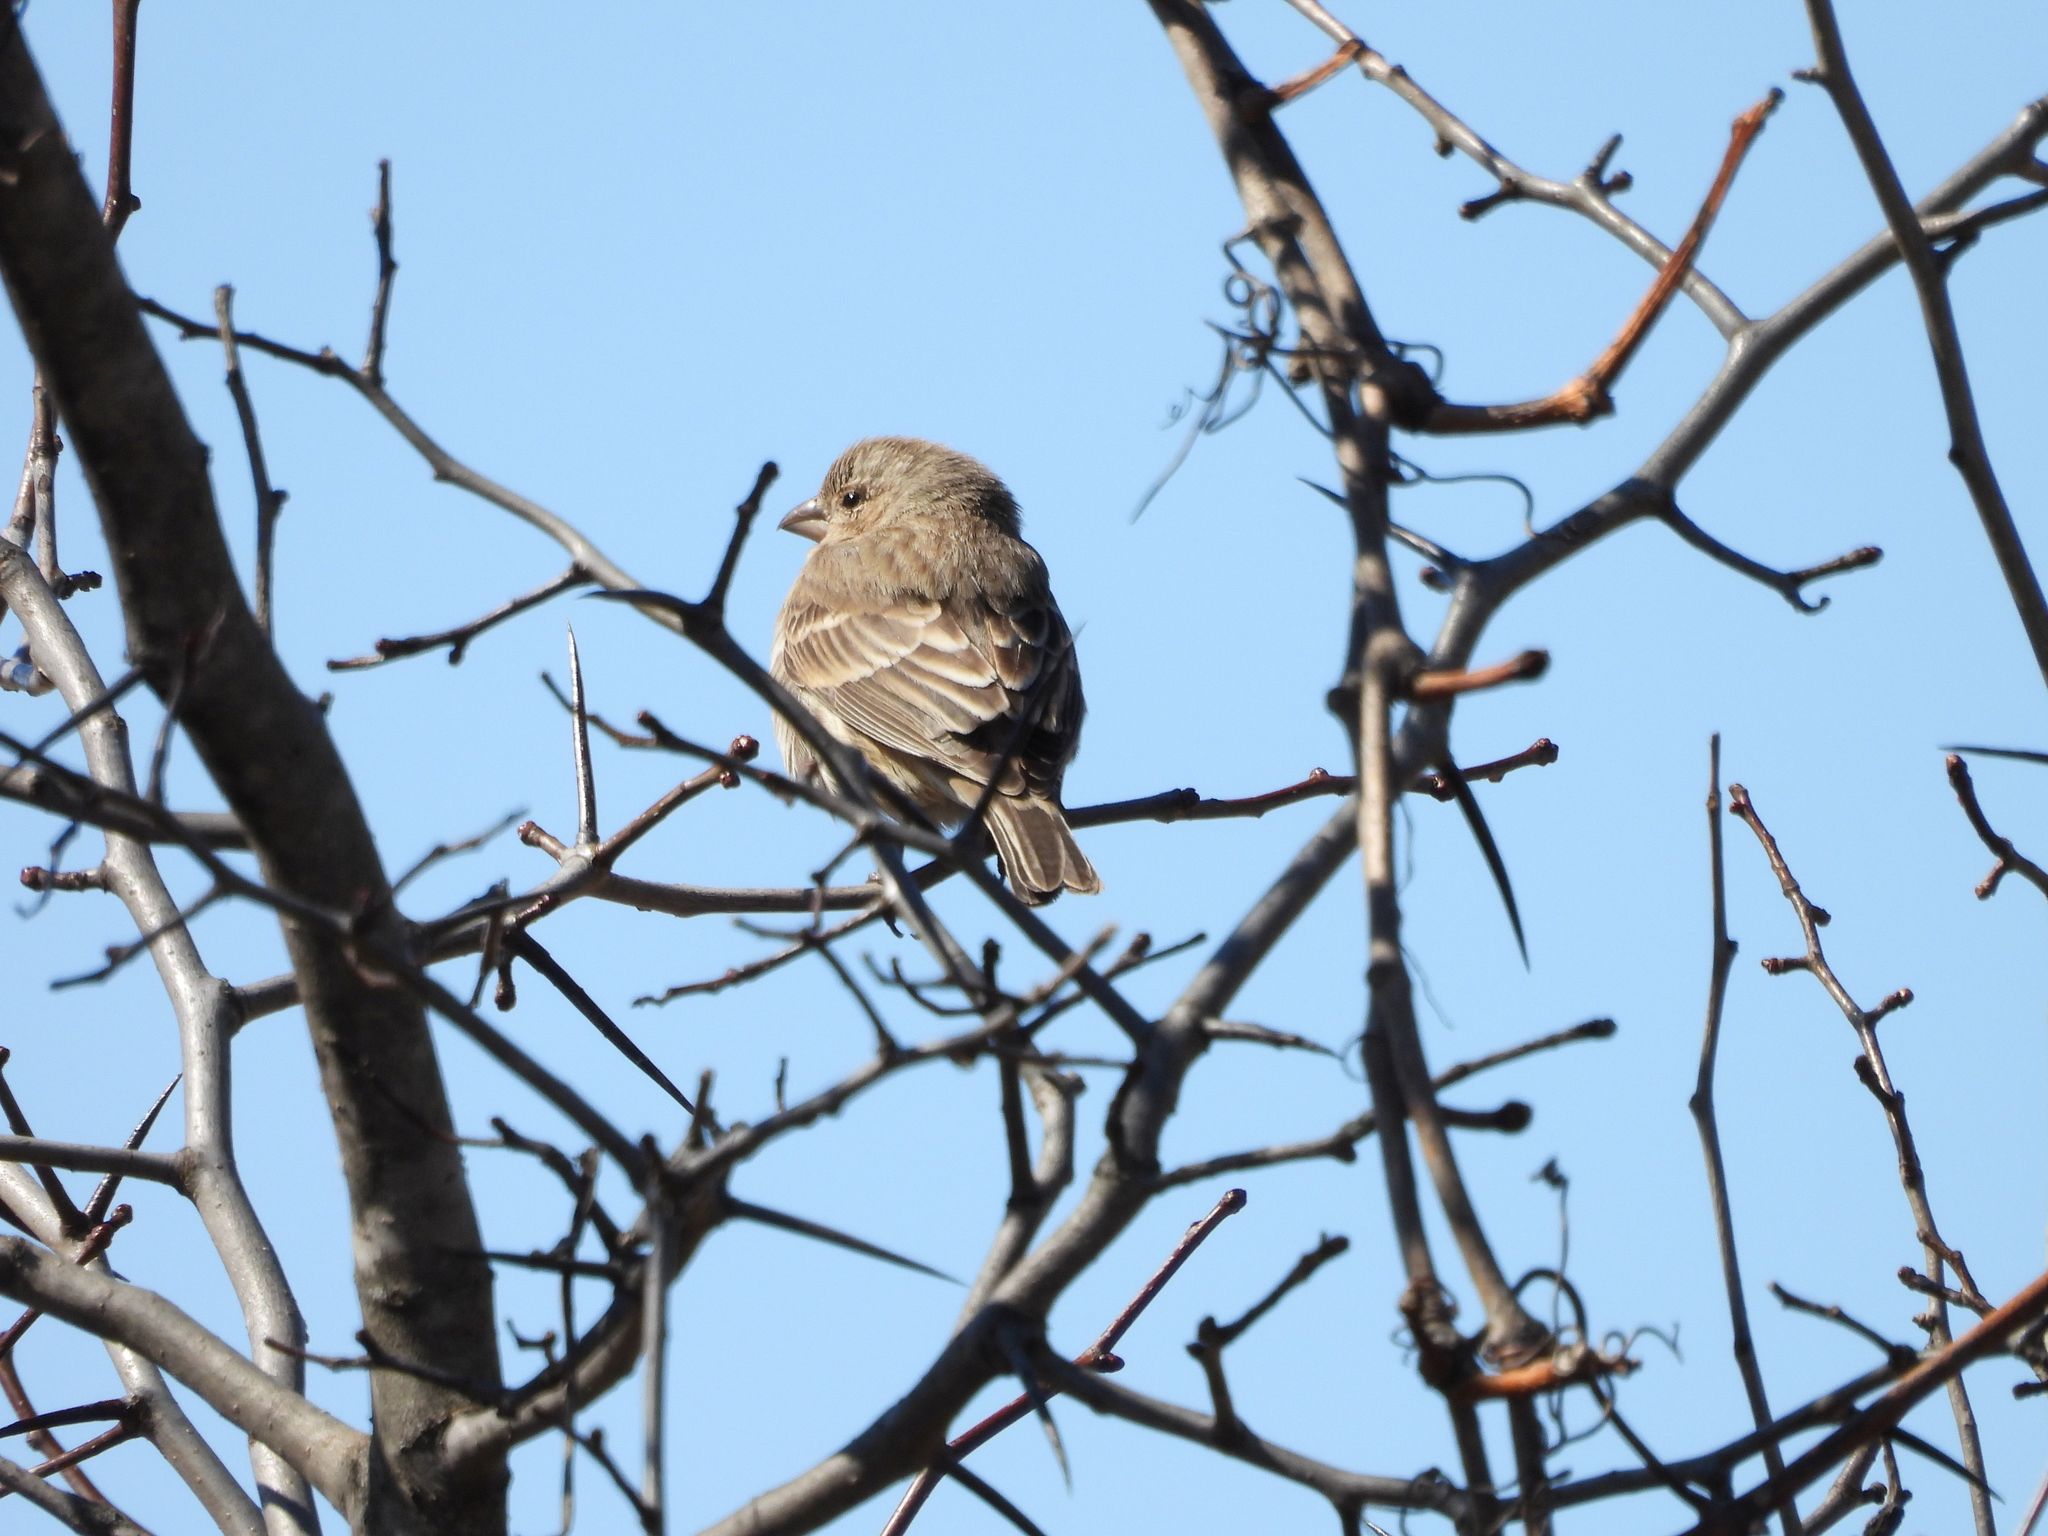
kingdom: Animalia
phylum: Chordata
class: Aves
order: Passeriformes
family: Fringillidae
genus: Haemorhous
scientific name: Haemorhous mexicanus
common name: House finch
